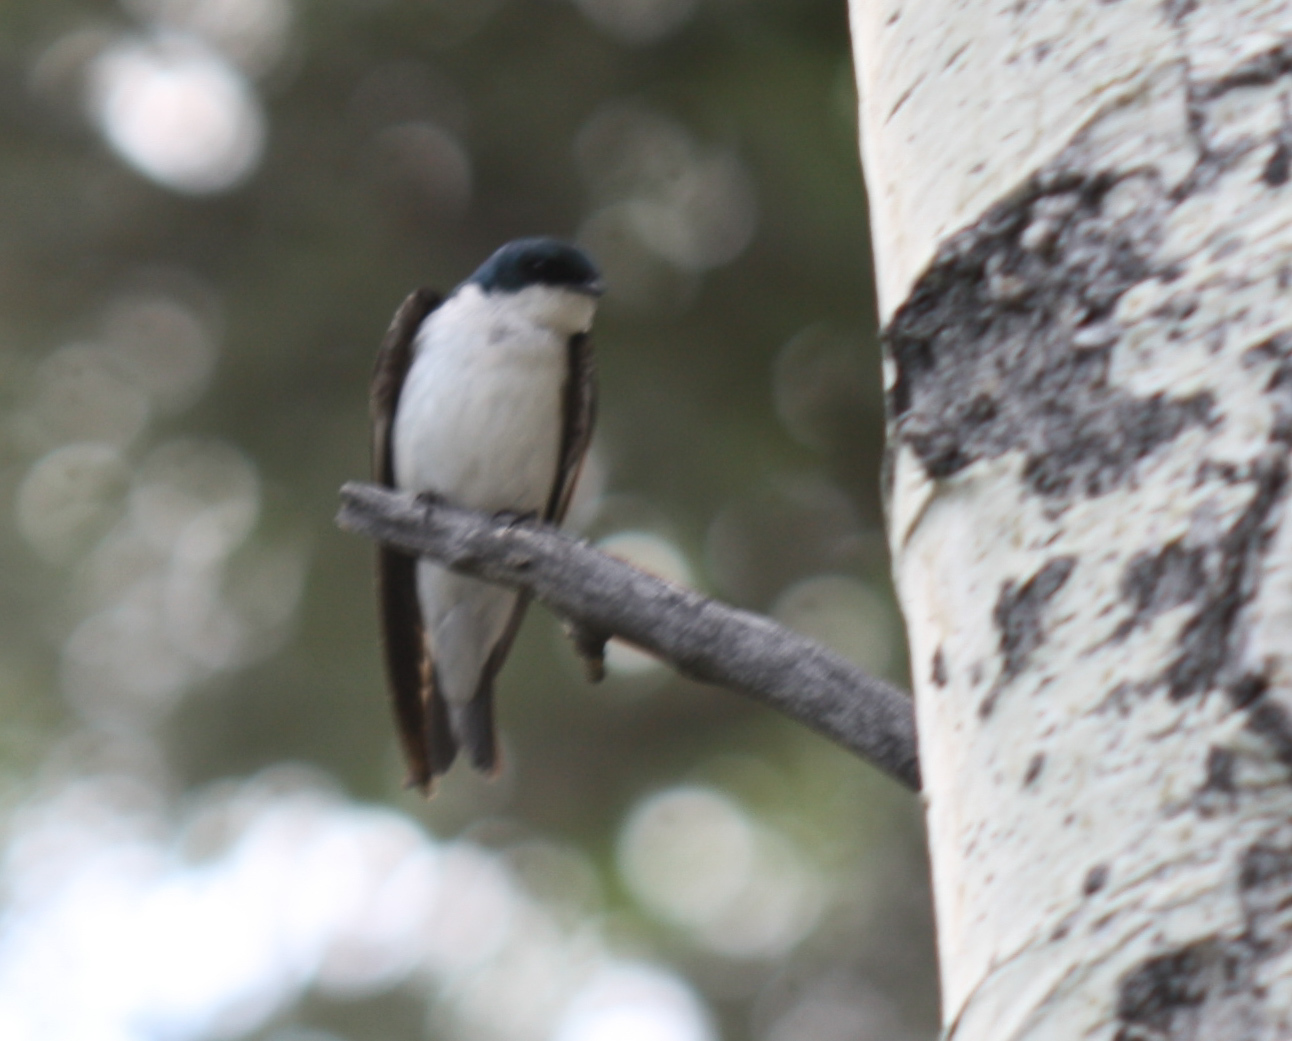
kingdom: Animalia
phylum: Chordata
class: Aves
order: Passeriformes
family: Hirundinidae
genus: Tachycineta
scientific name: Tachycineta bicolor
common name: Tree swallow
